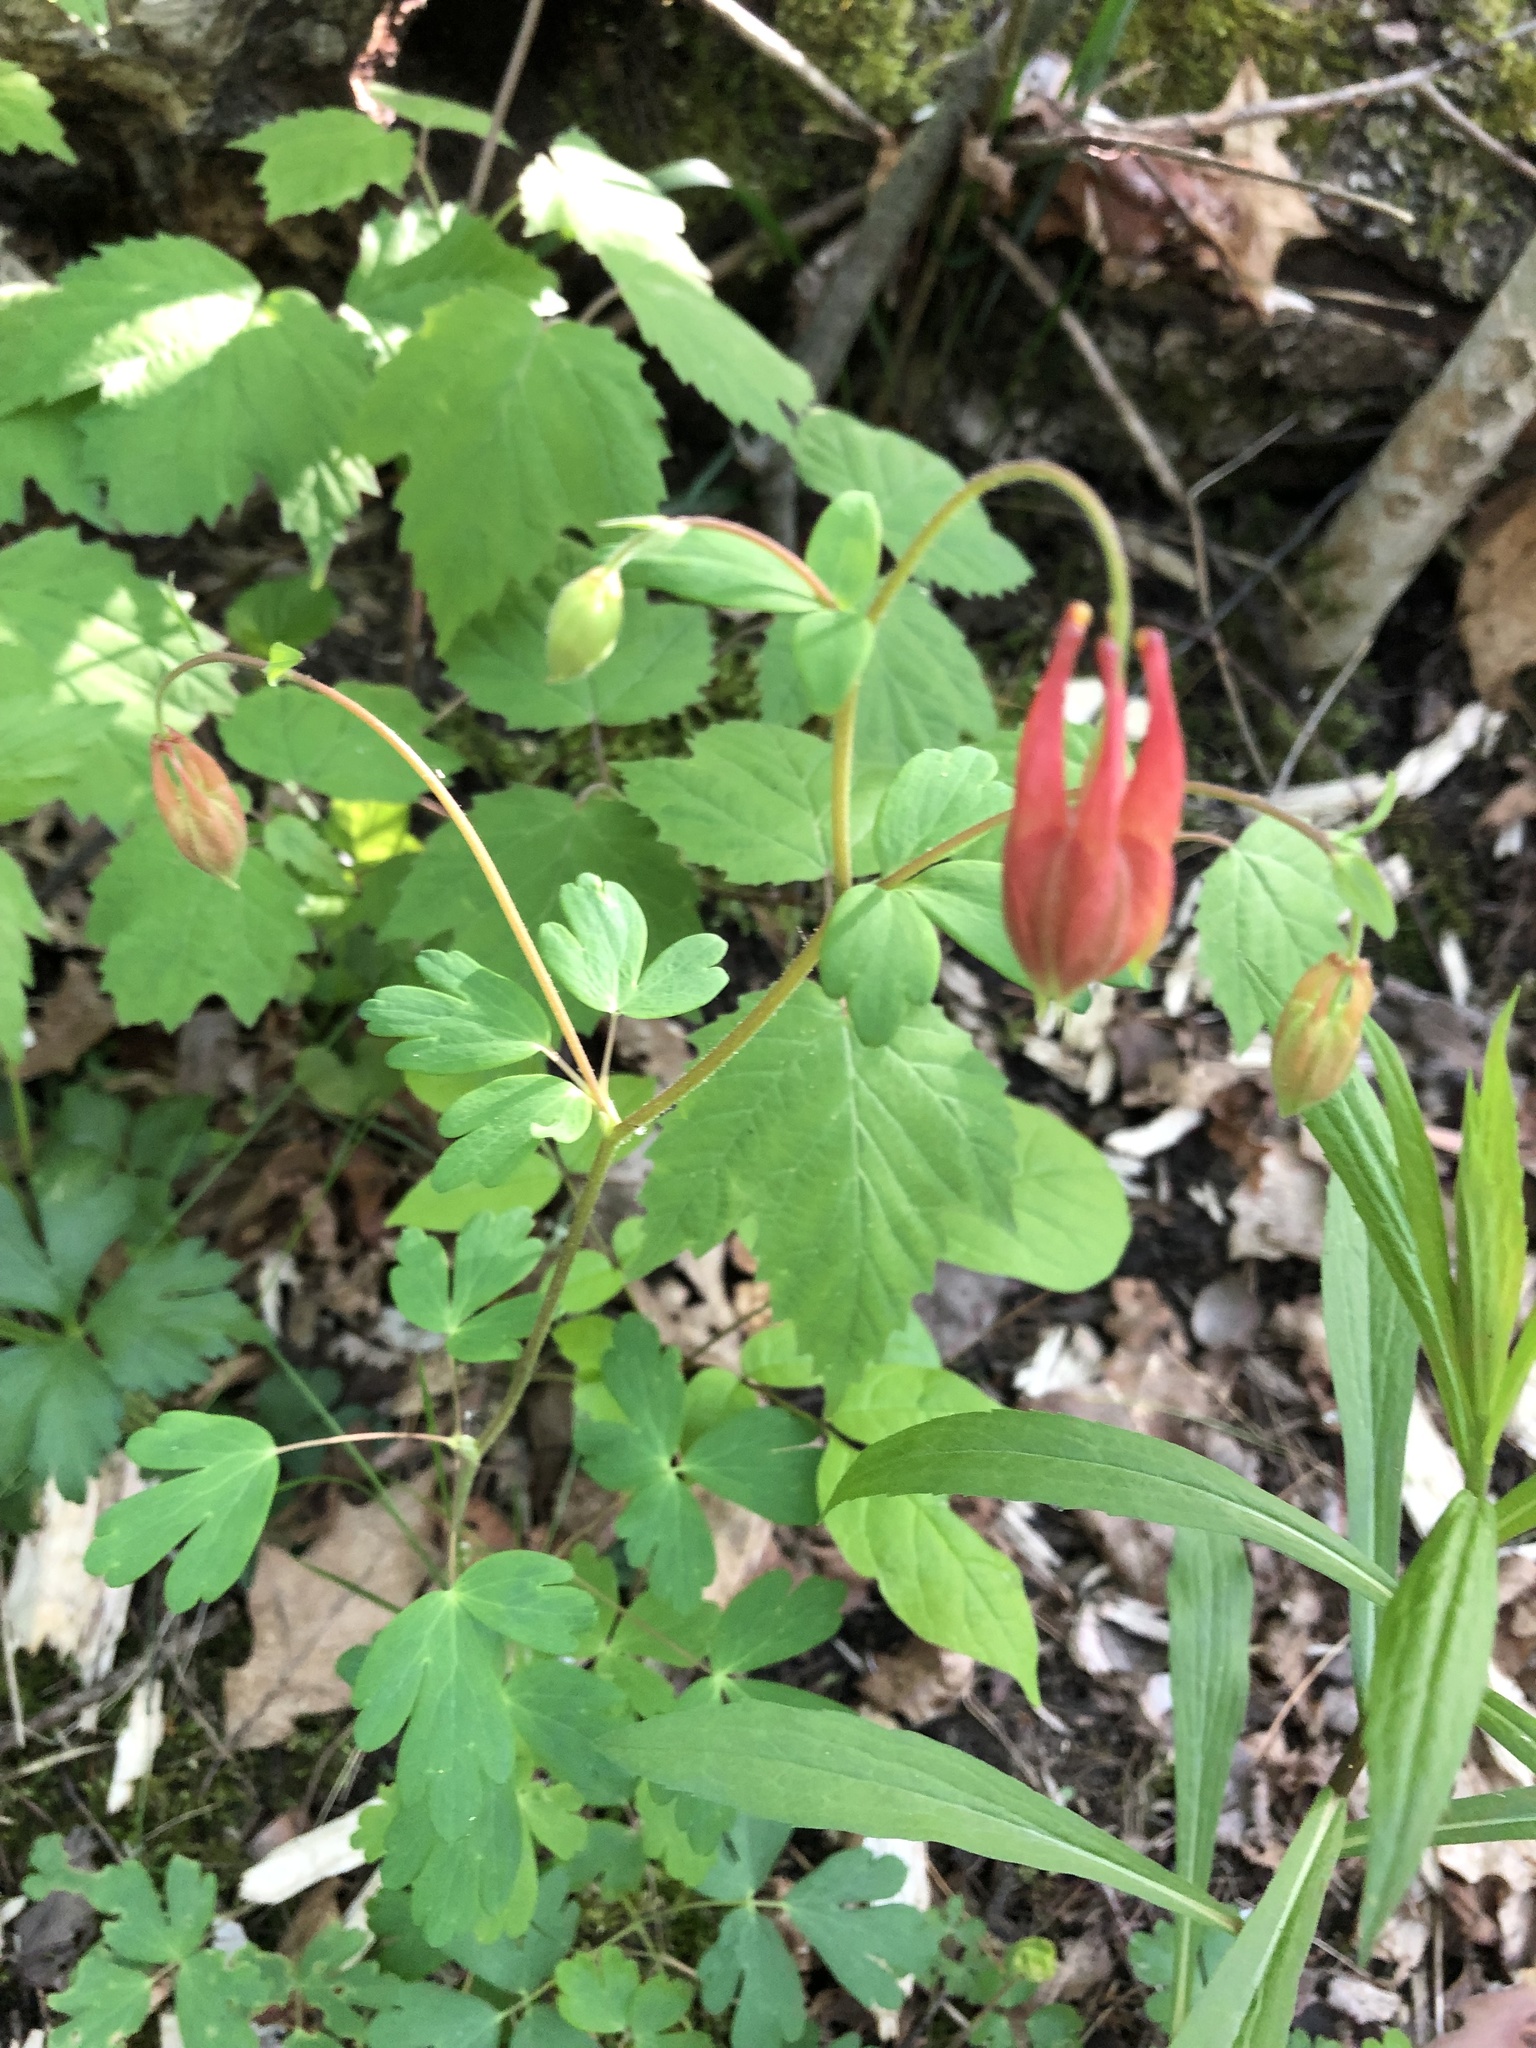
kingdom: Plantae
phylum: Tracheophyta
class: Magnoliopsida
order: Ranunculales
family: Ranunculaceae
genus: Aquilegia
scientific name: Aquilegia canadensis
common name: American columbine
